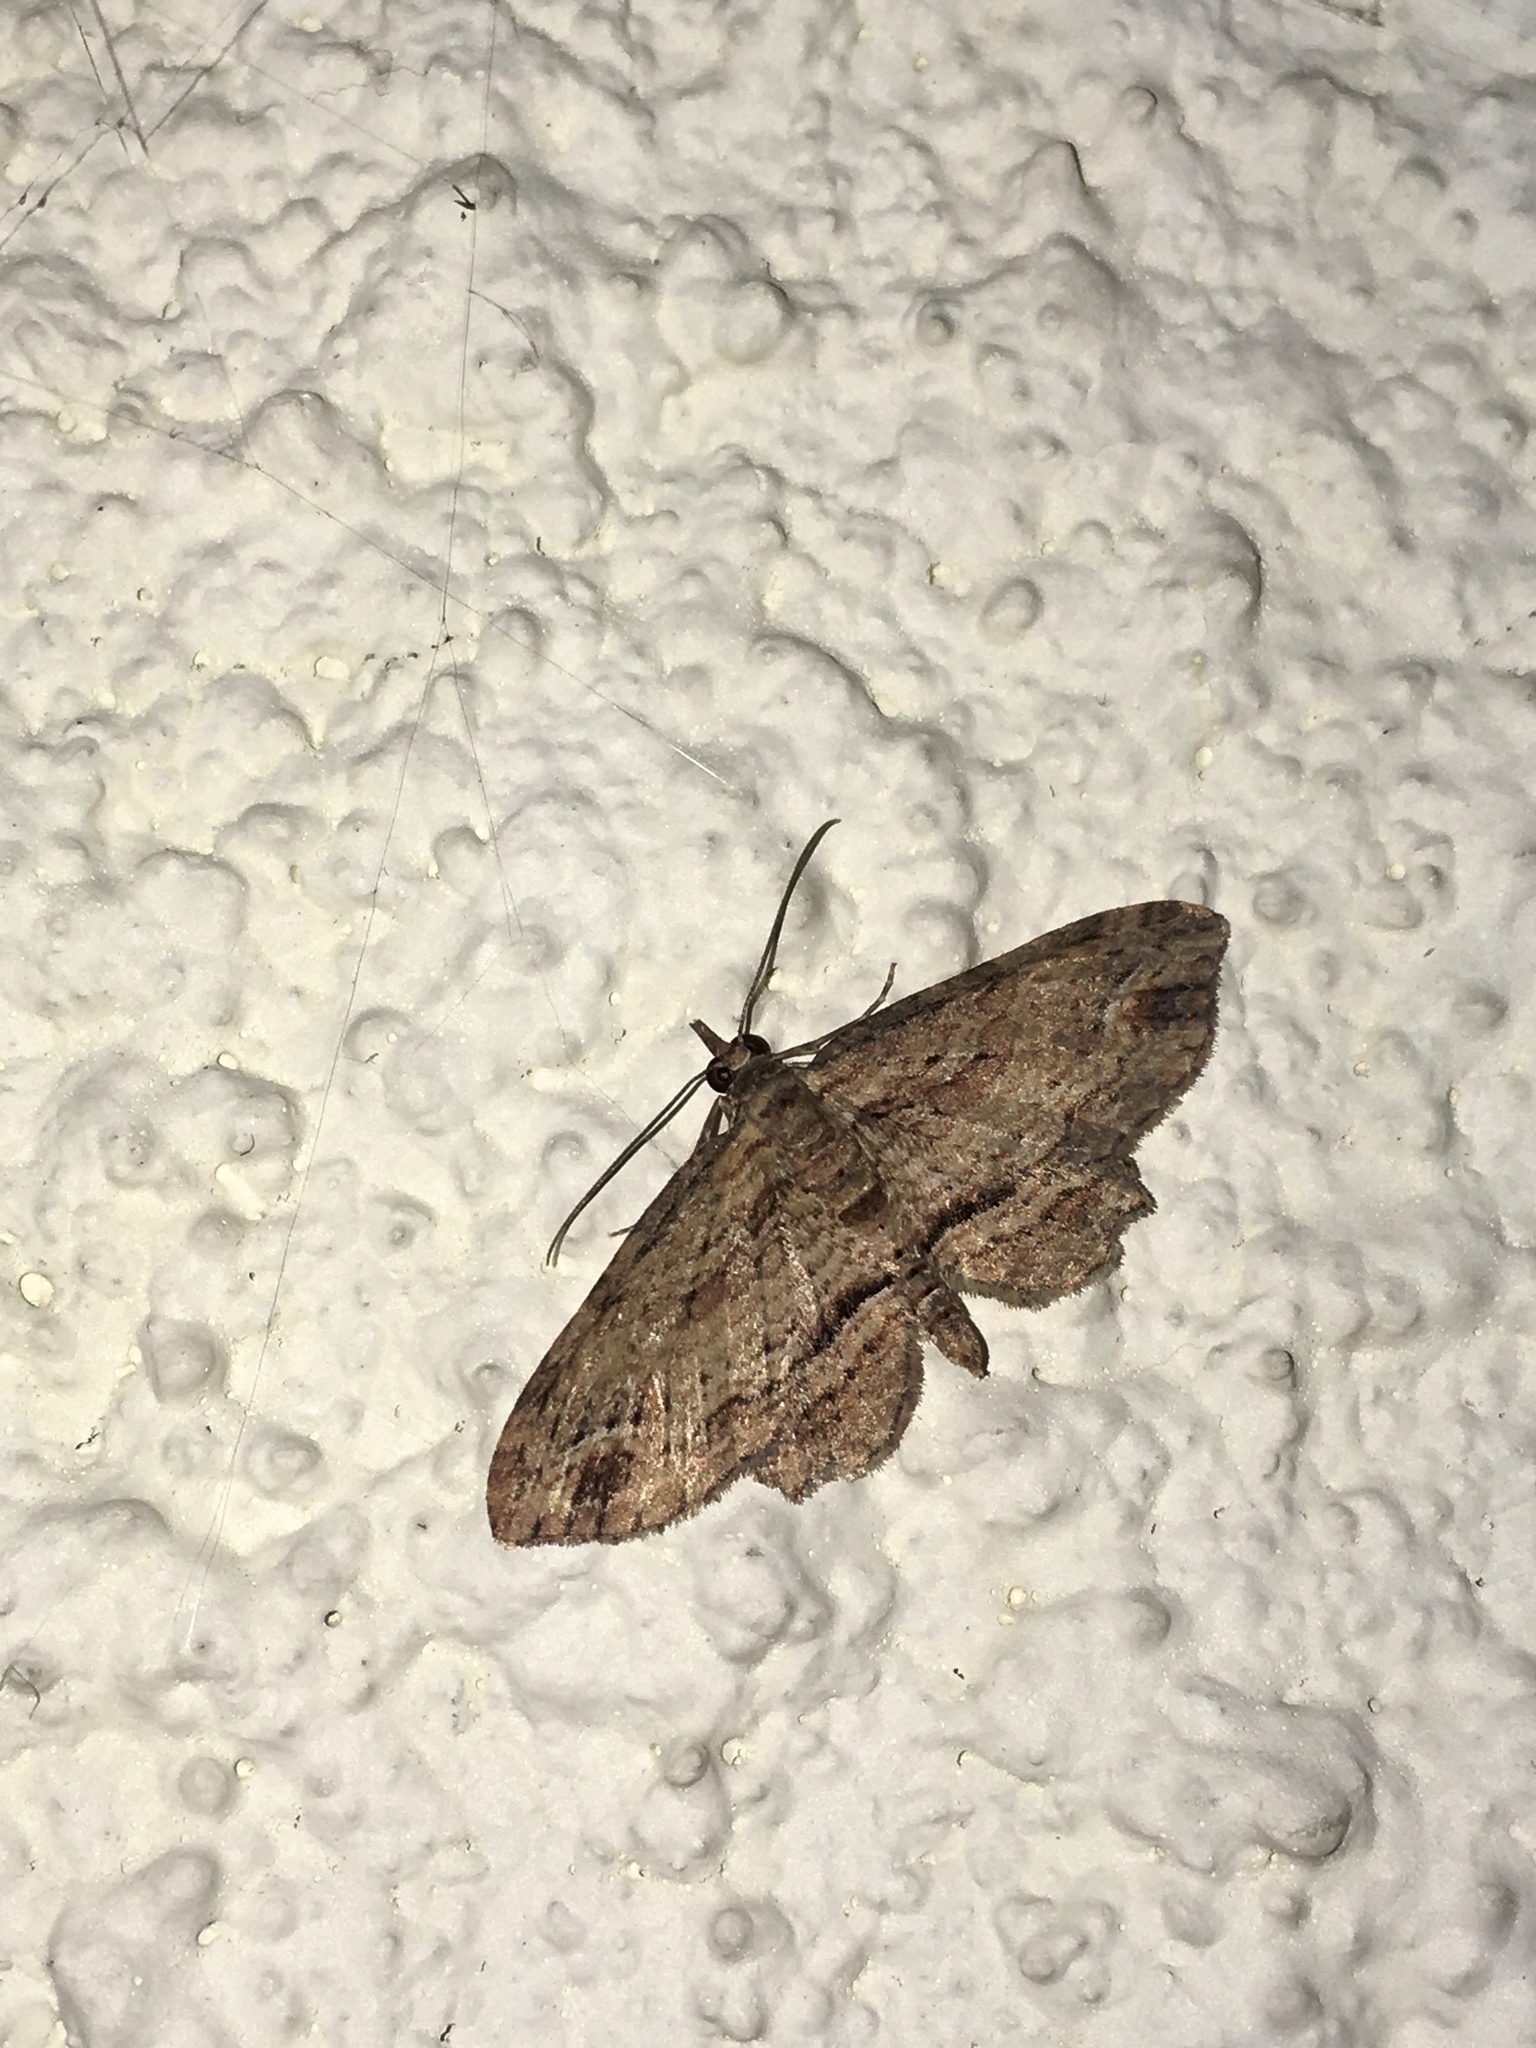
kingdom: Animalia
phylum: Arthropoda
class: Insecta
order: Lepidoptera
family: Geometridae
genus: Chloroclystis
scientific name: Chloroclystis filata
